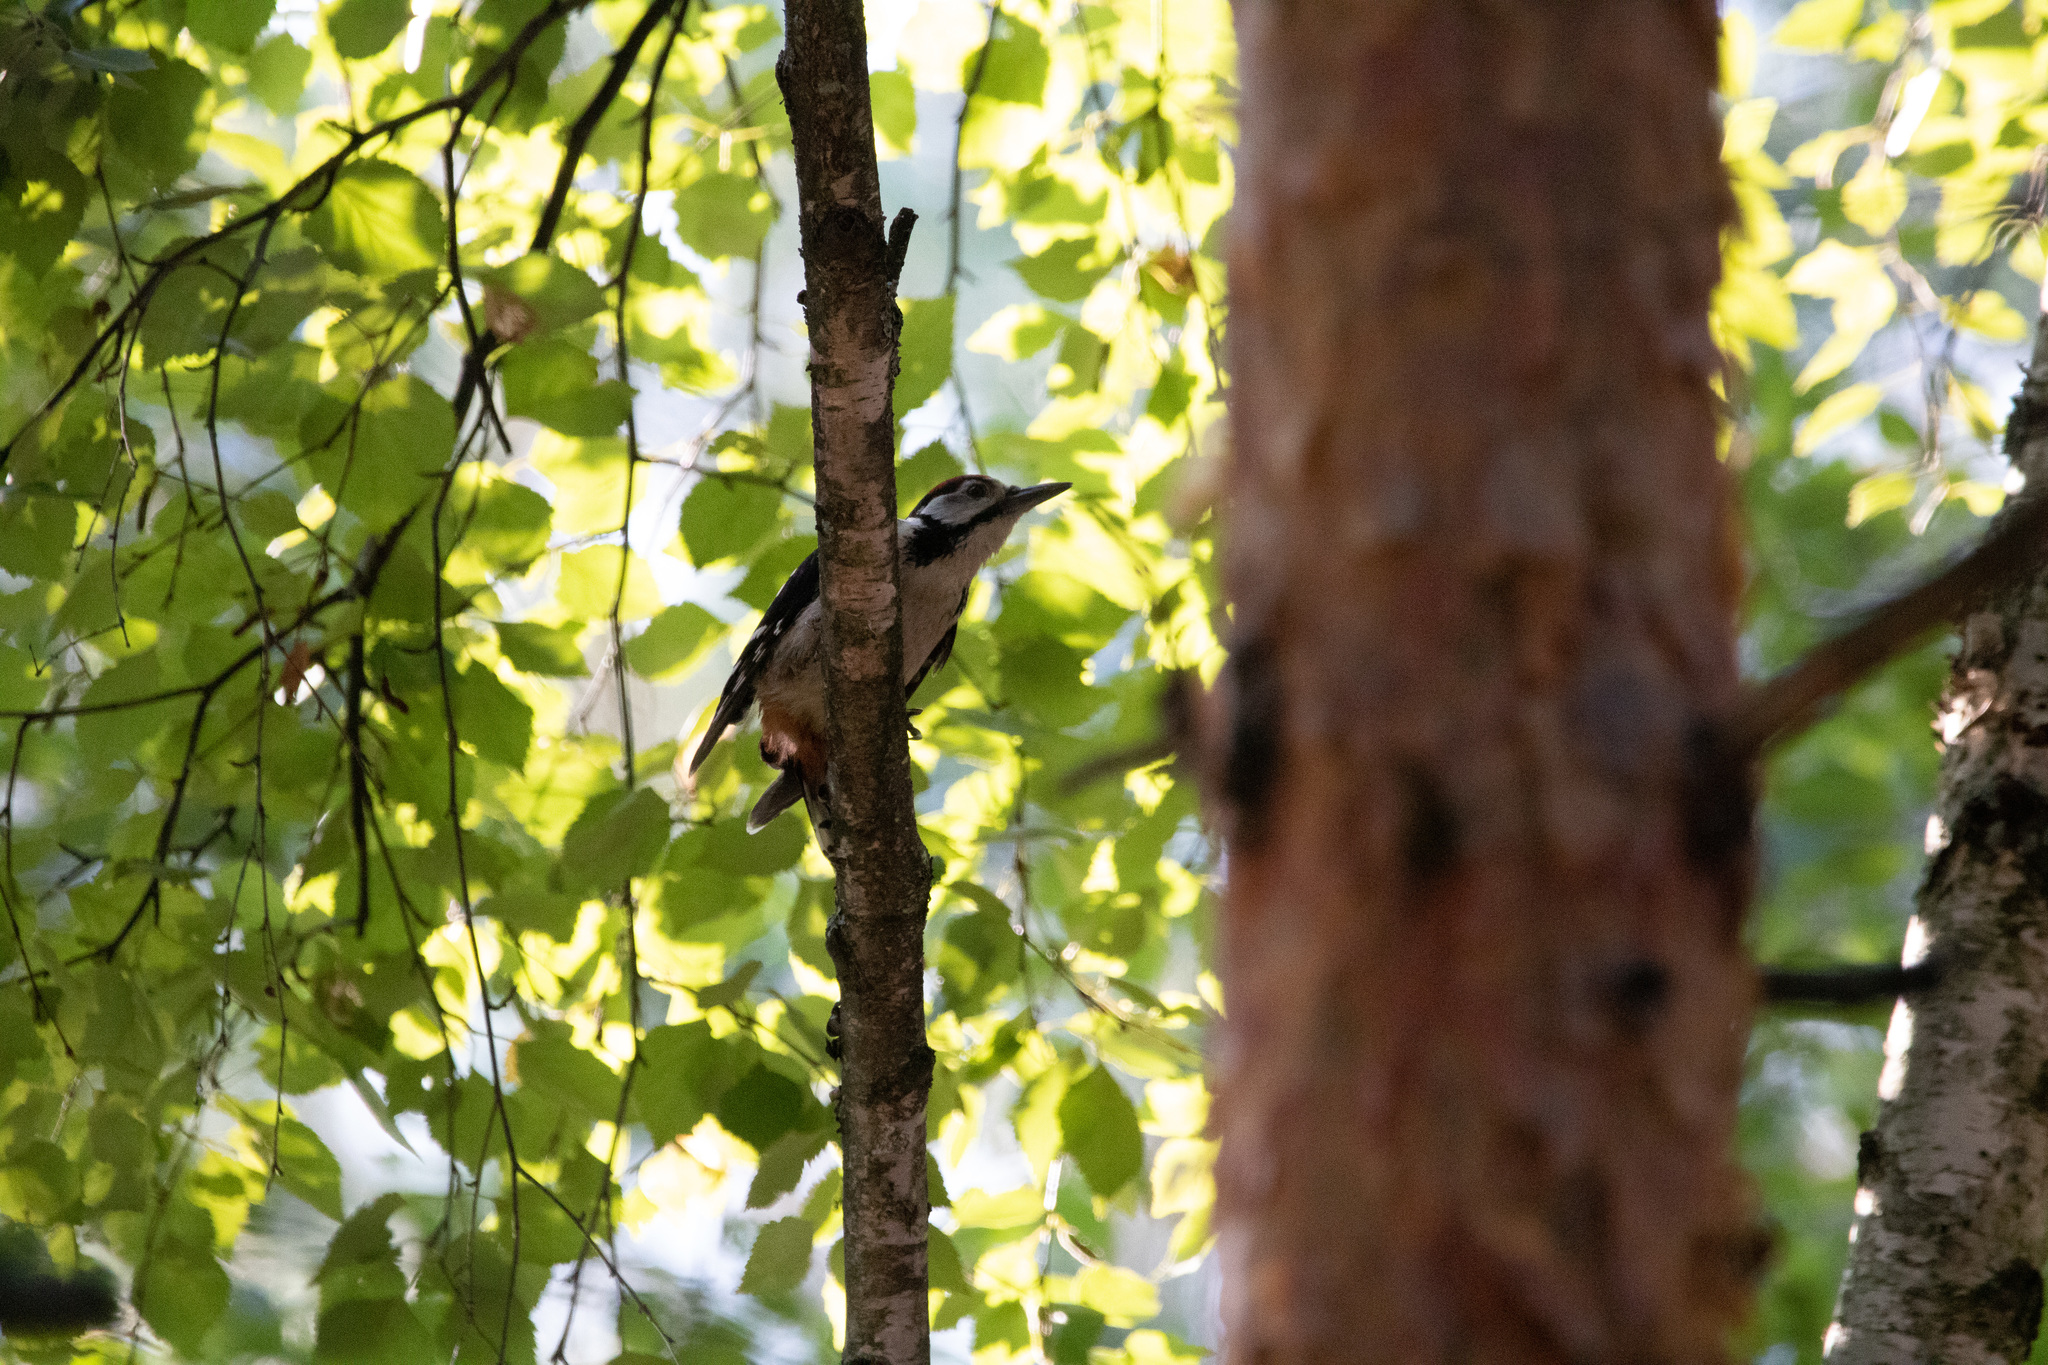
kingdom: Animalia
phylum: Chordata
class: Aves
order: Piciformes
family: Picidae
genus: Dendrocopos
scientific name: Dendrocopos major
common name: Great spotted woodpecker
